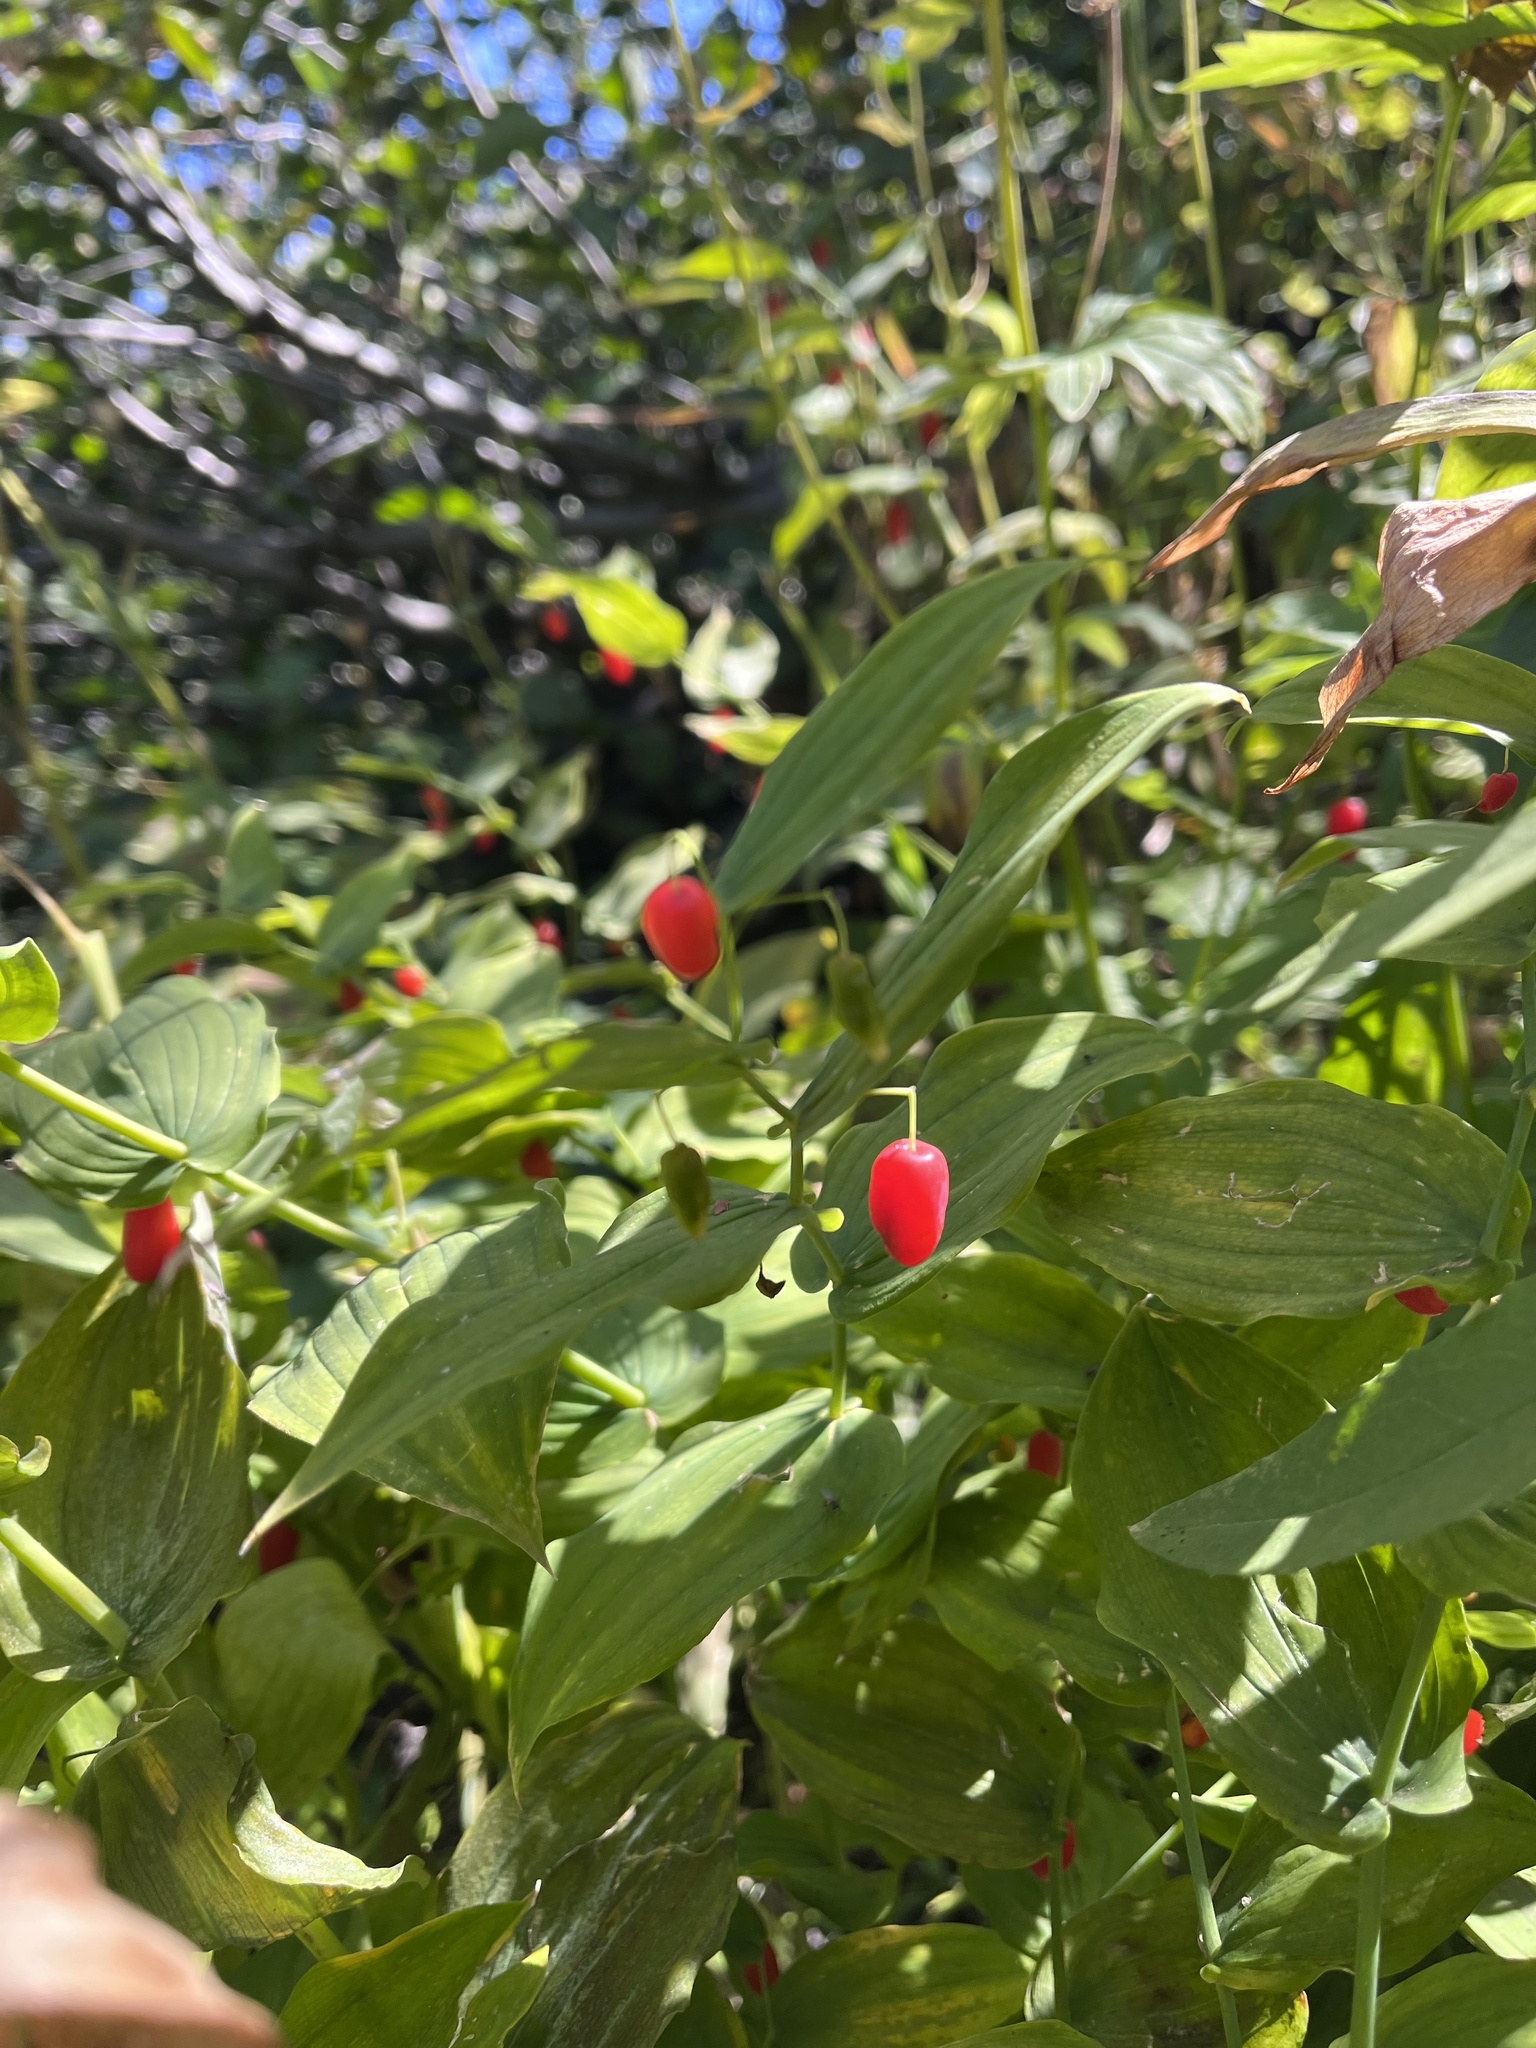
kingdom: Plantae
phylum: Tracheophyta
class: Liliopsida
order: Liliales
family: Liliaceae
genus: Streptopus
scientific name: Streptopus amplexifolius
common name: Clasp twisted stalk
